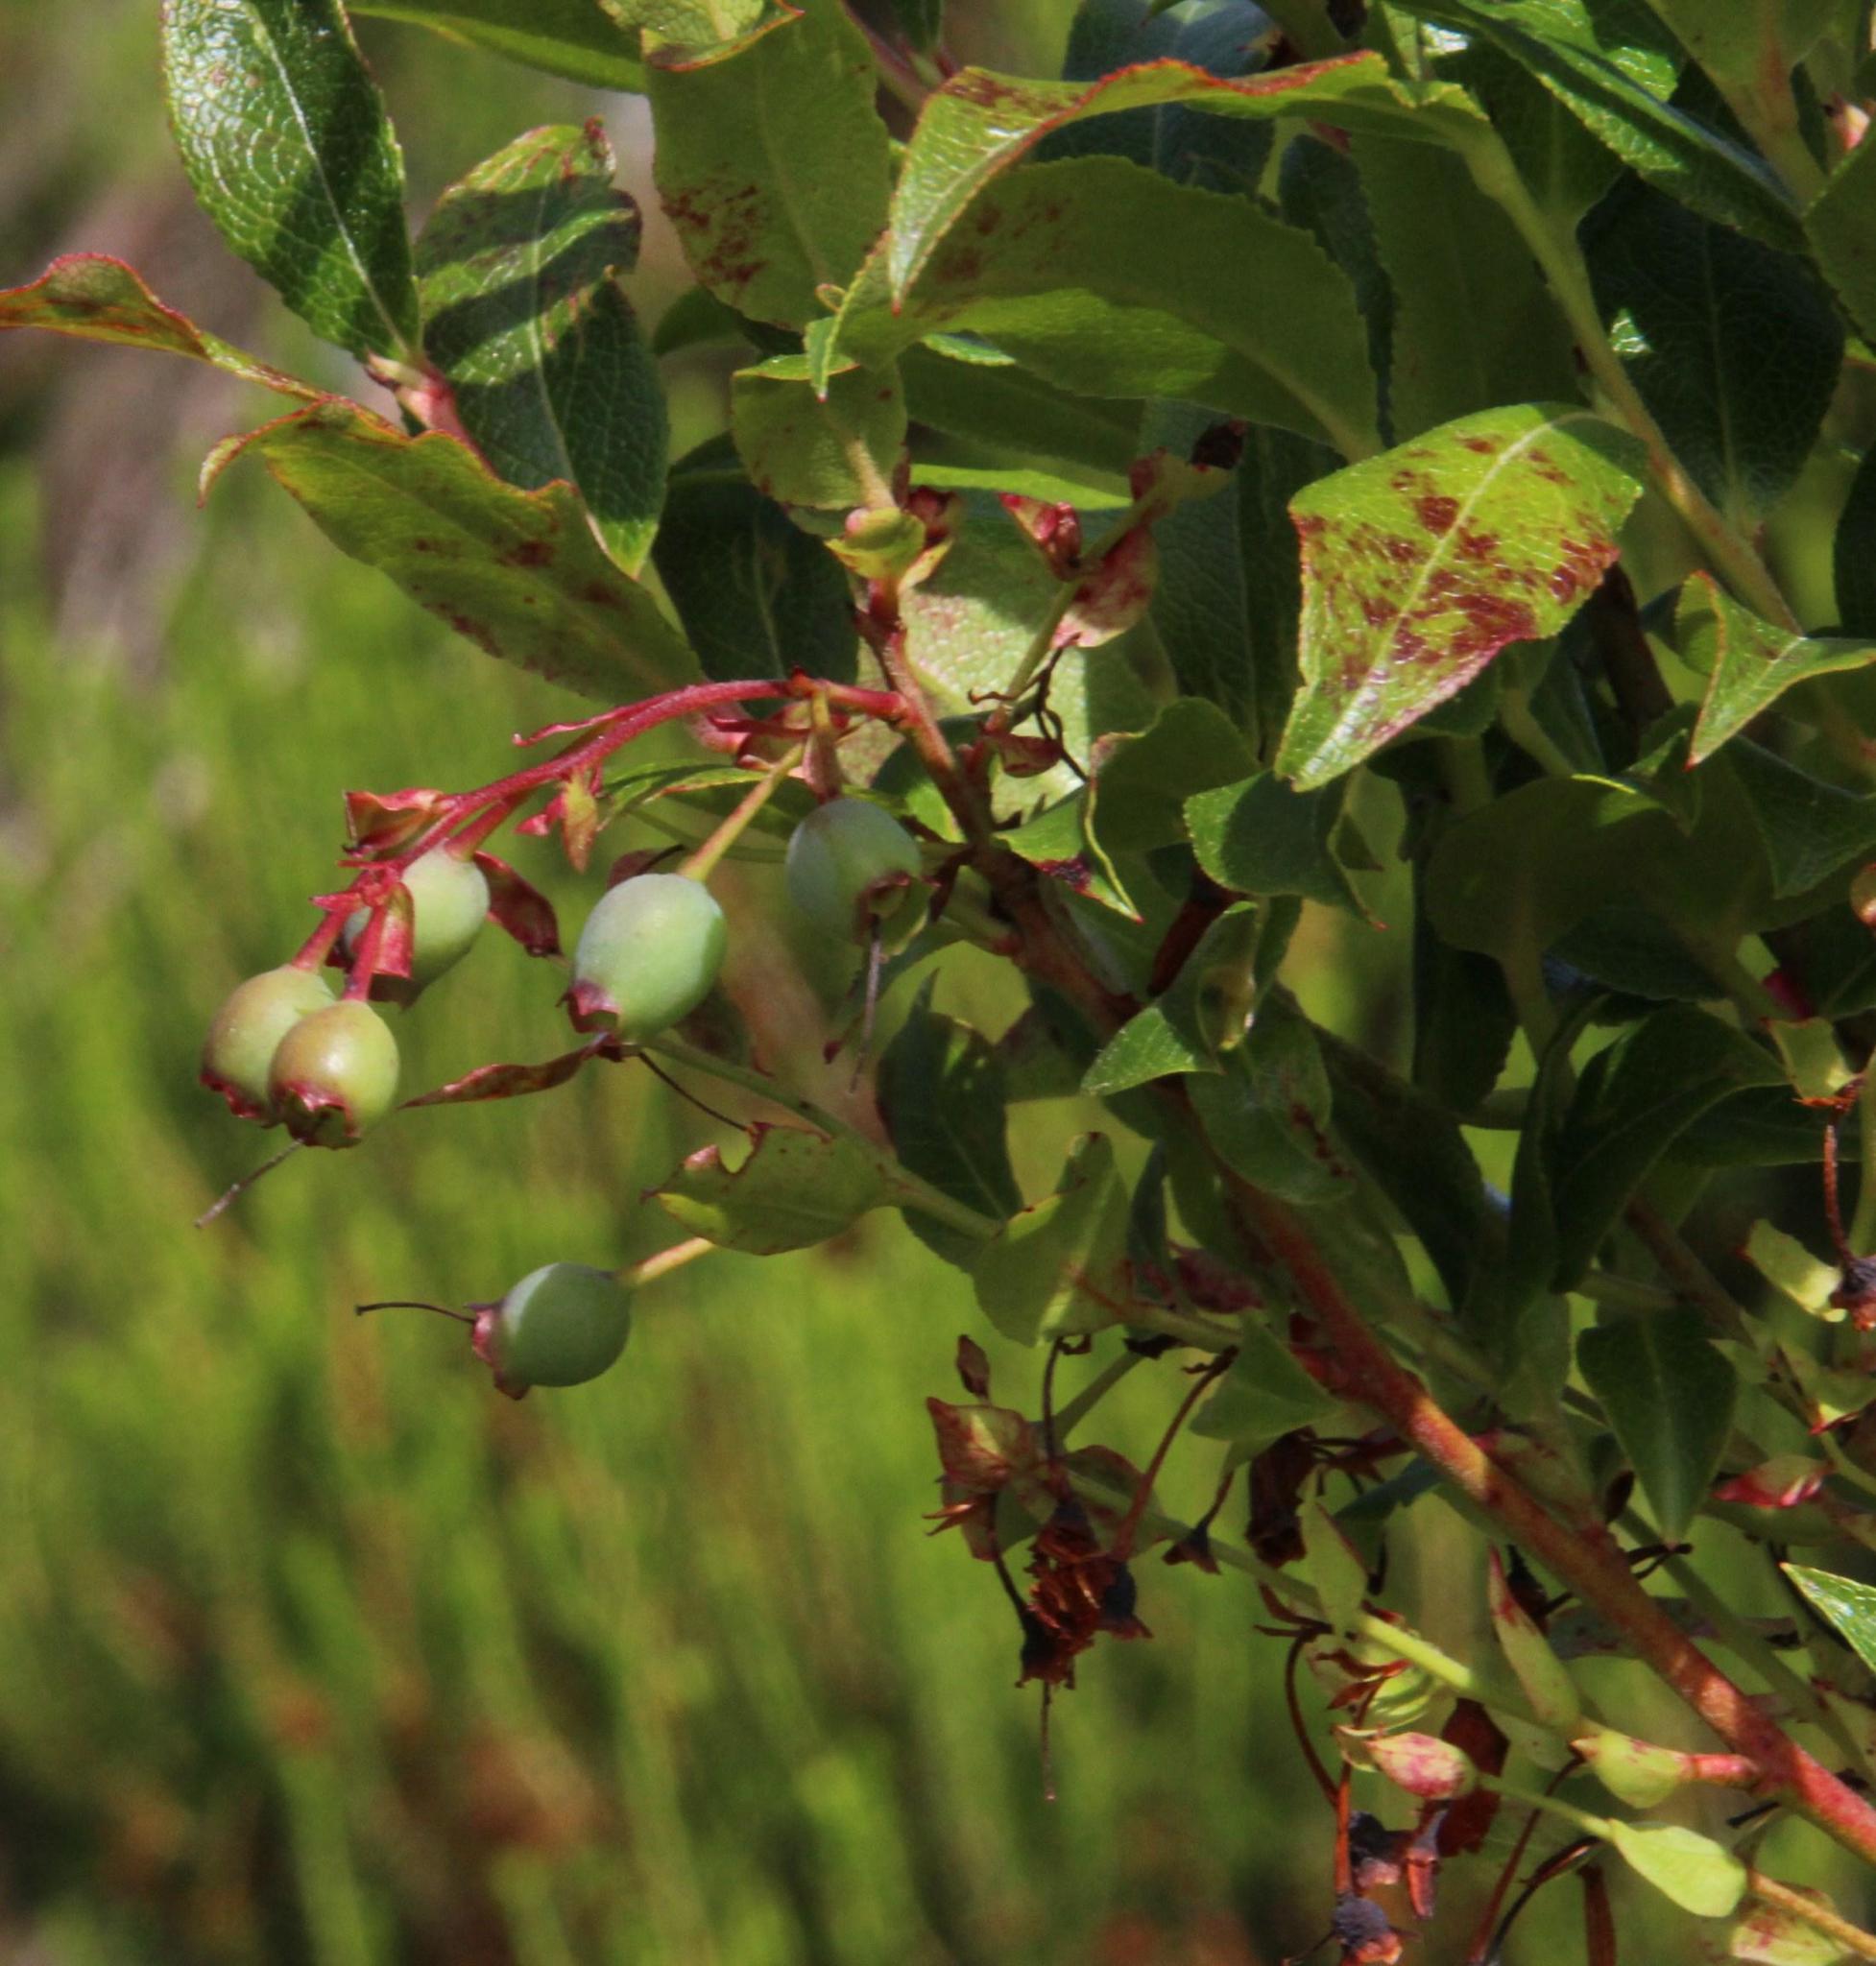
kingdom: Plantae
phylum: Tracheophyta
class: Magnoliopsida
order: Ericales
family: Ericaceae
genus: Vaccinium
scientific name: Vaccinium padifolium
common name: Madeiran blueberry
